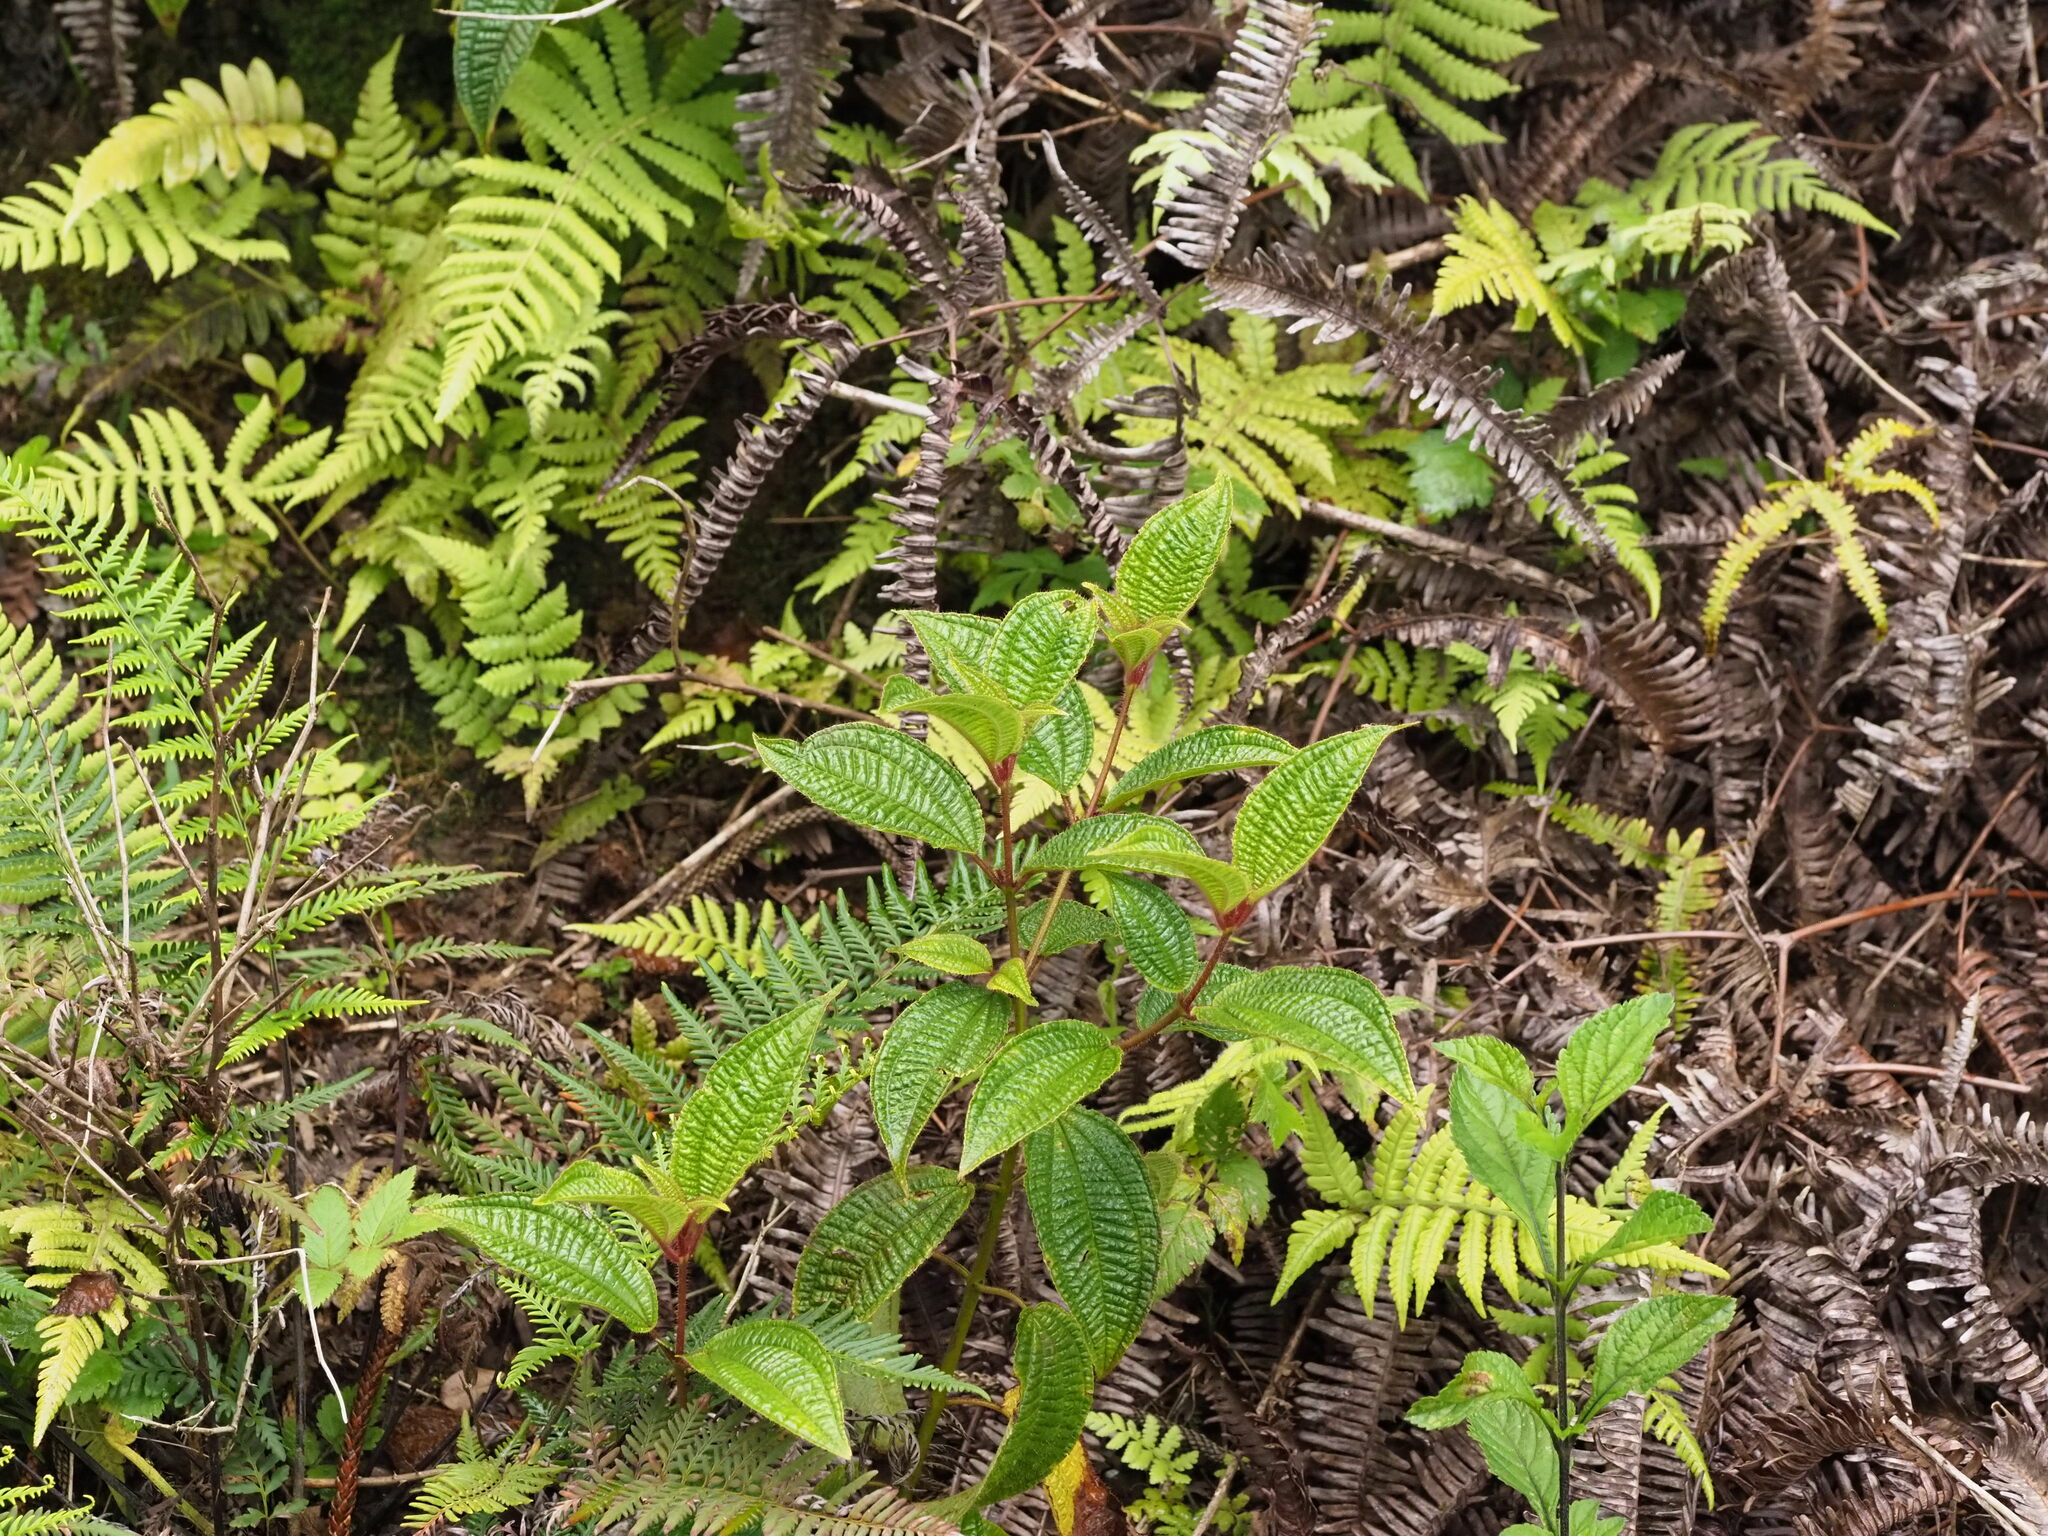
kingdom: Plantae
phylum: Tracheophyta
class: Magnoliopsida
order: Myrtales
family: Melastomataceae
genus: Miconia
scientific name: Miconia crenata
